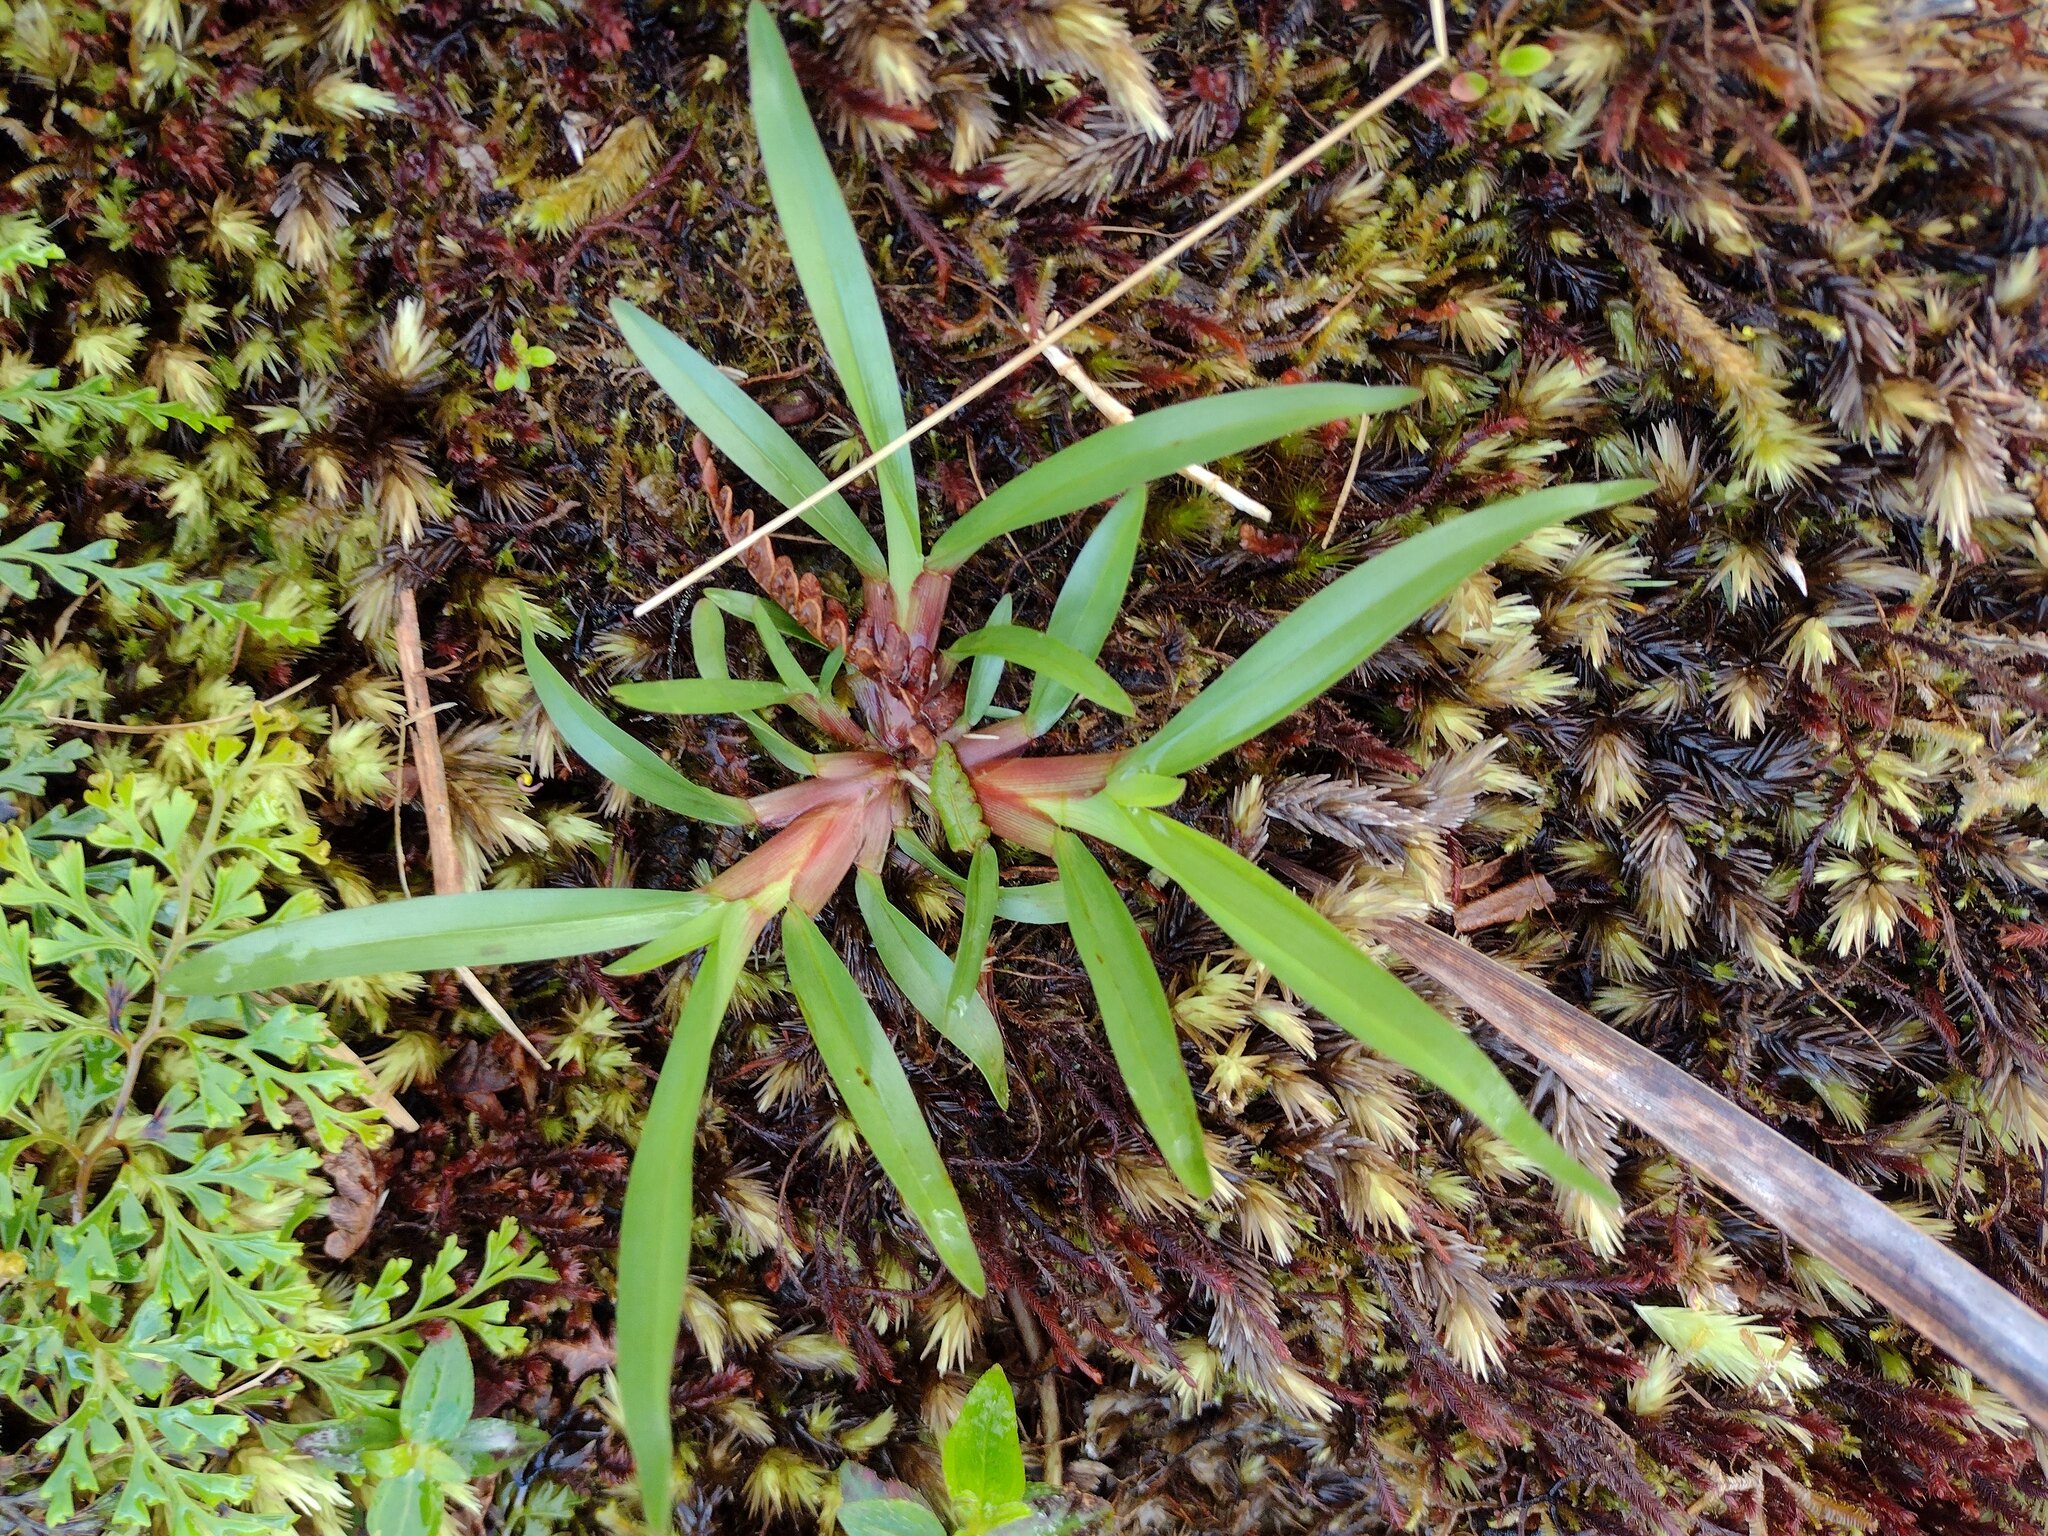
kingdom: Plantae
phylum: Tracheophyta
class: Liliopsida
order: Poales
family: Poaceae
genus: Axonopus
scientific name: Axonopus fissifolius
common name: Common carpetgrass
